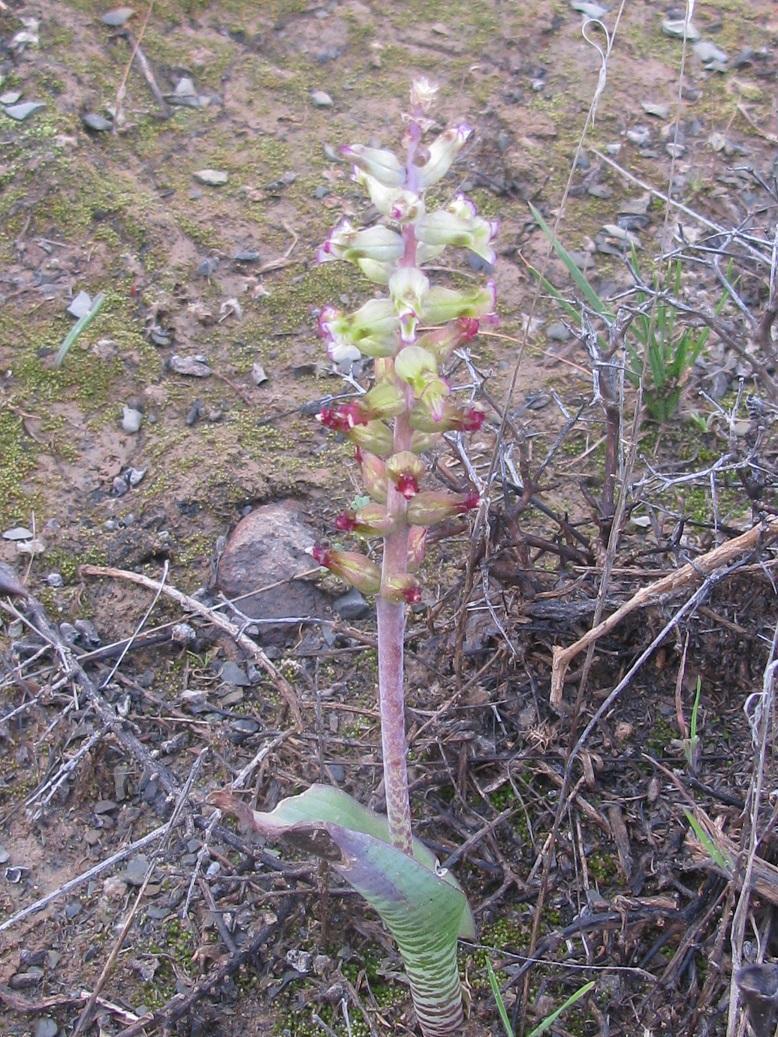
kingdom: Plantae
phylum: Tracheophyta
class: Liliopsida
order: Asparagales
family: Asparagaceae
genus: Lachenalia
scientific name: Lachenalia obscura
